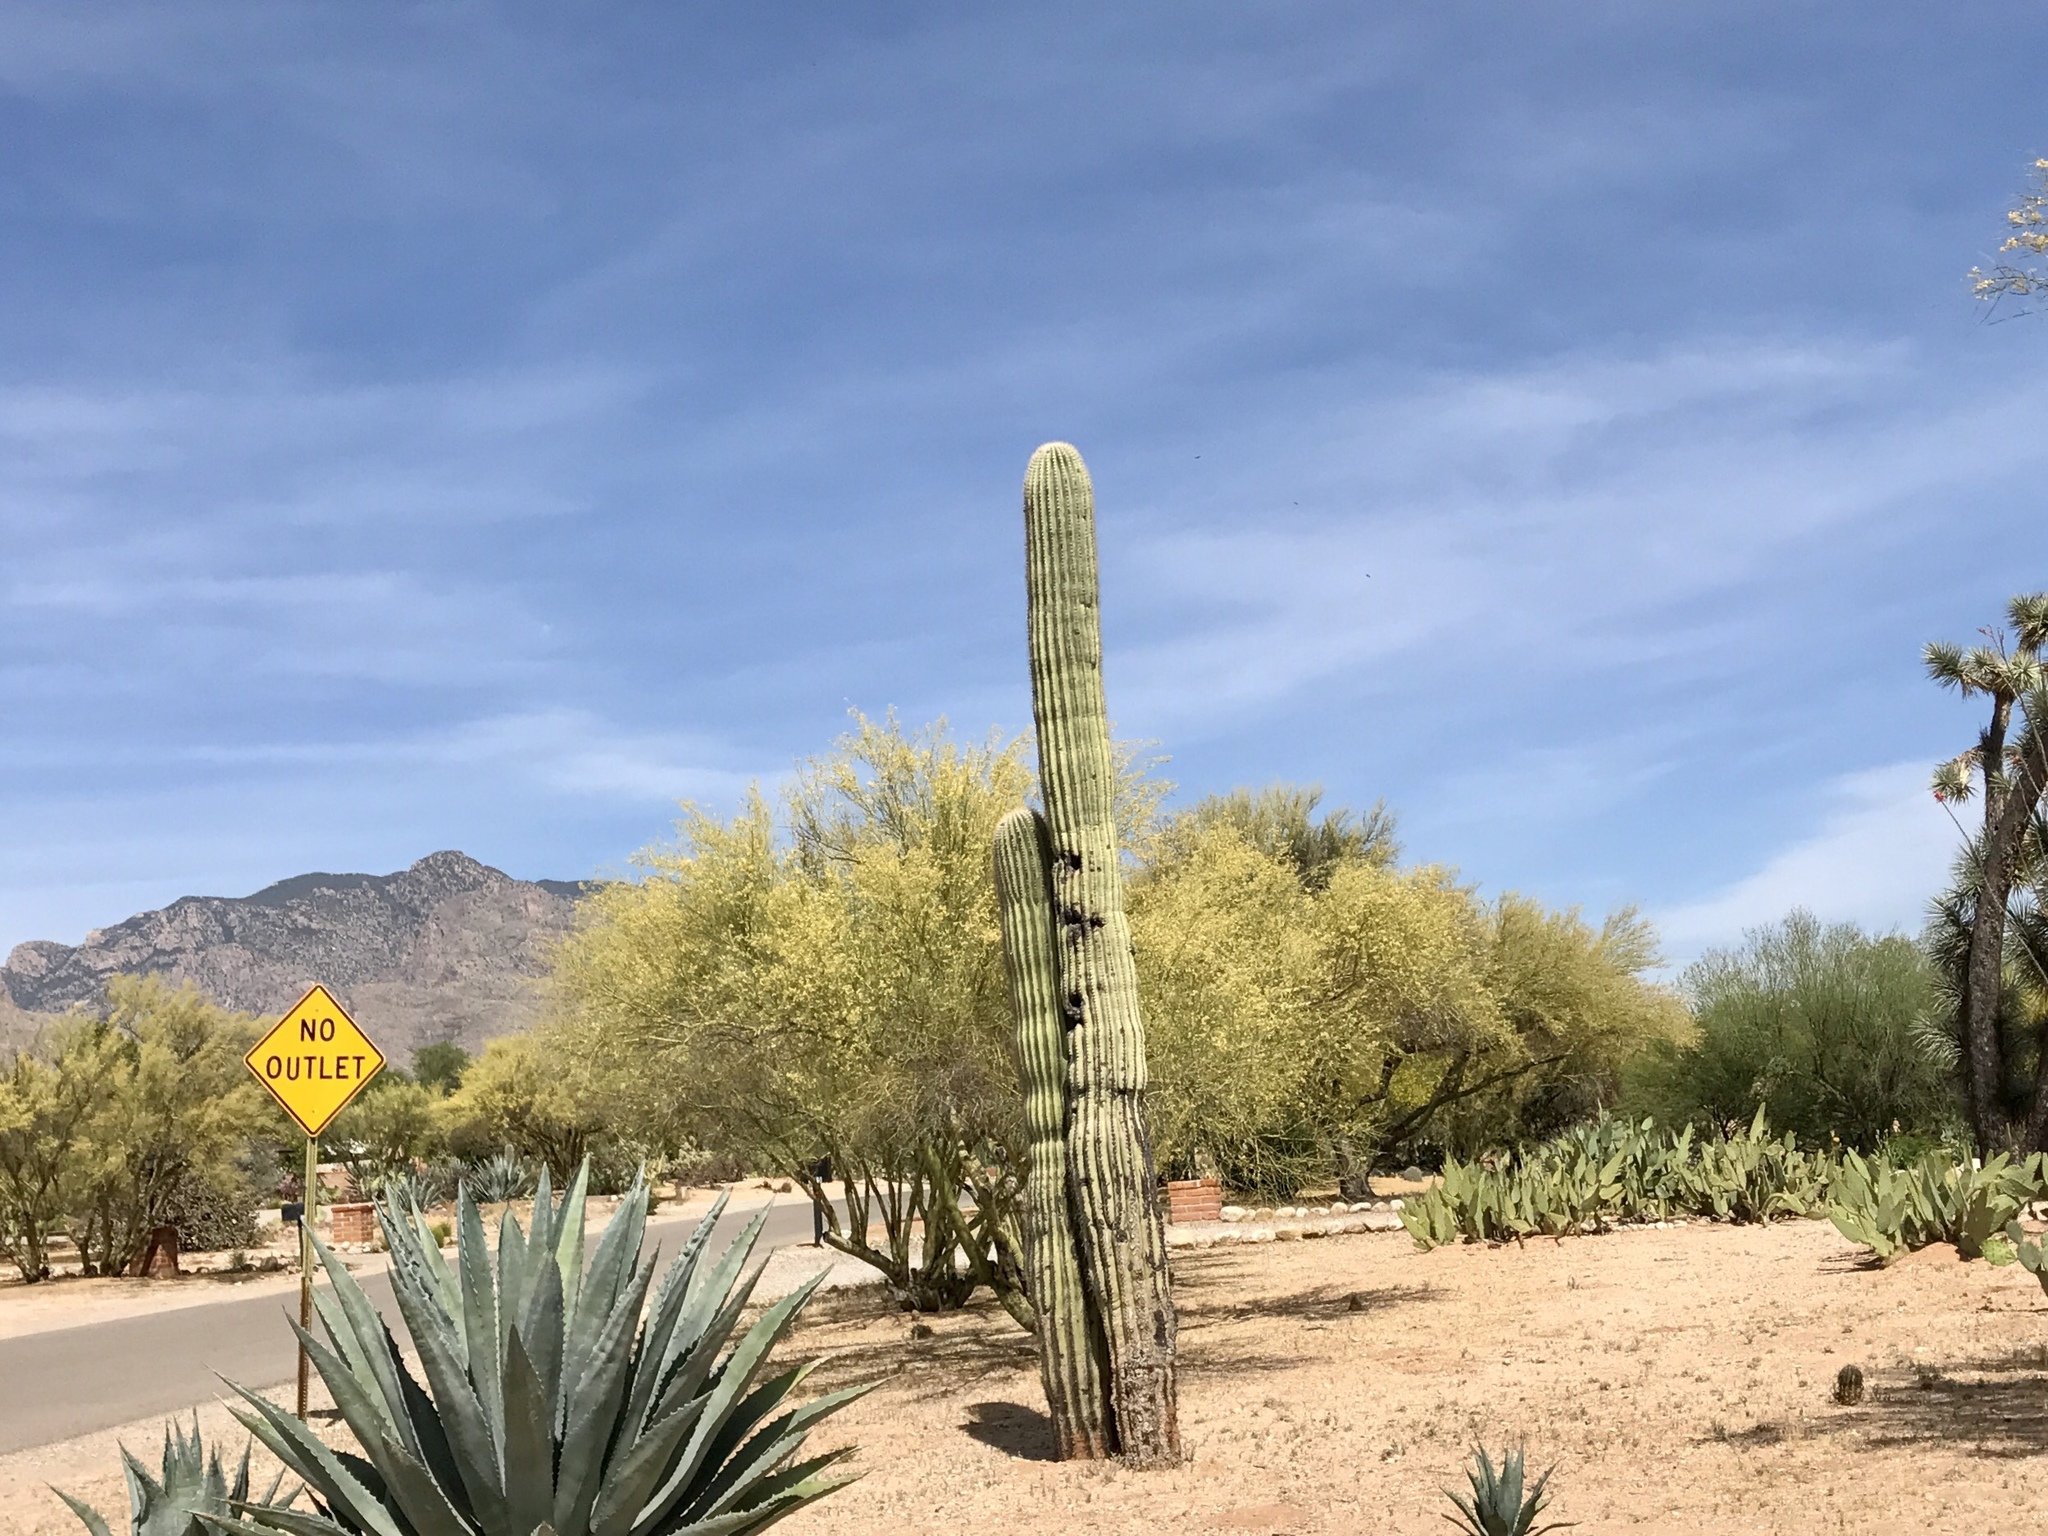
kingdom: Plantae
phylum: Tracheophyta
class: Magnoliopsida
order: Caryophyllales
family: Cactaceae
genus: Carnegiea
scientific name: Carnegiea gigantea
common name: Saguaro
